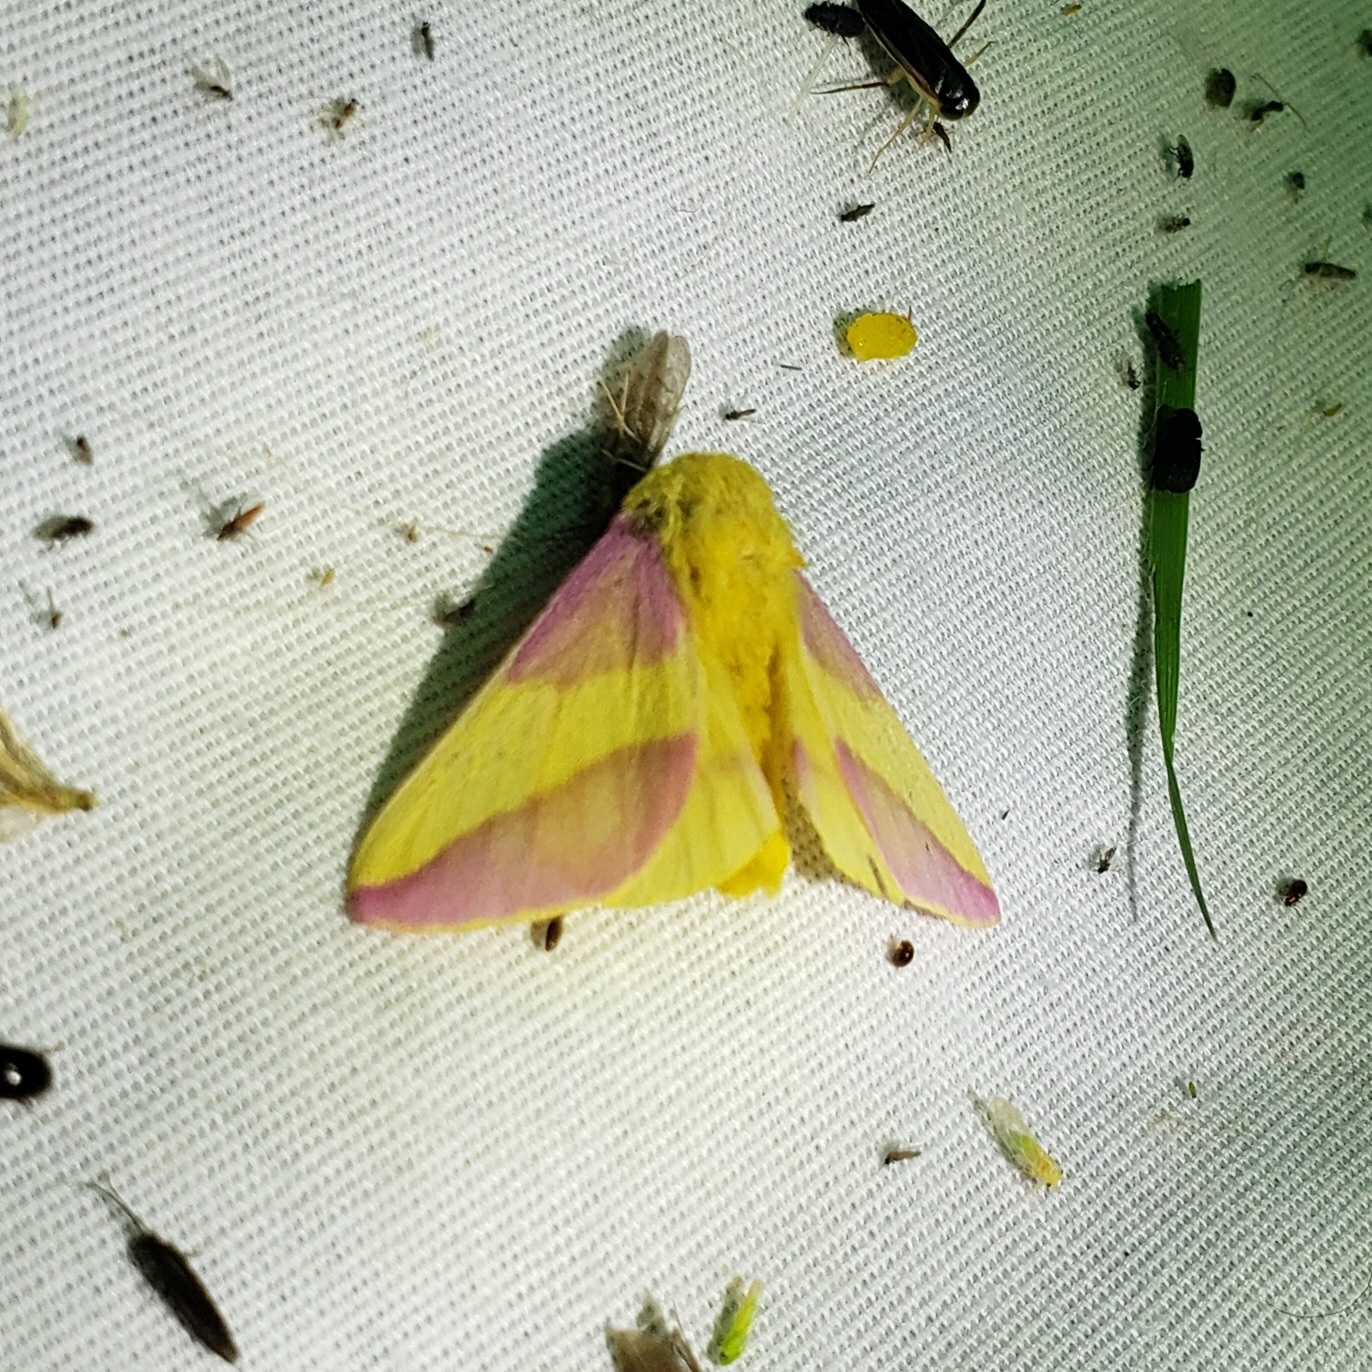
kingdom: Animalia
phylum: Arthropoda
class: Insecta
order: Lepidoptera
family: Saturniidae
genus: Dryocampa
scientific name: Dryocampa rubicunda
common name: Rosy maple moth
